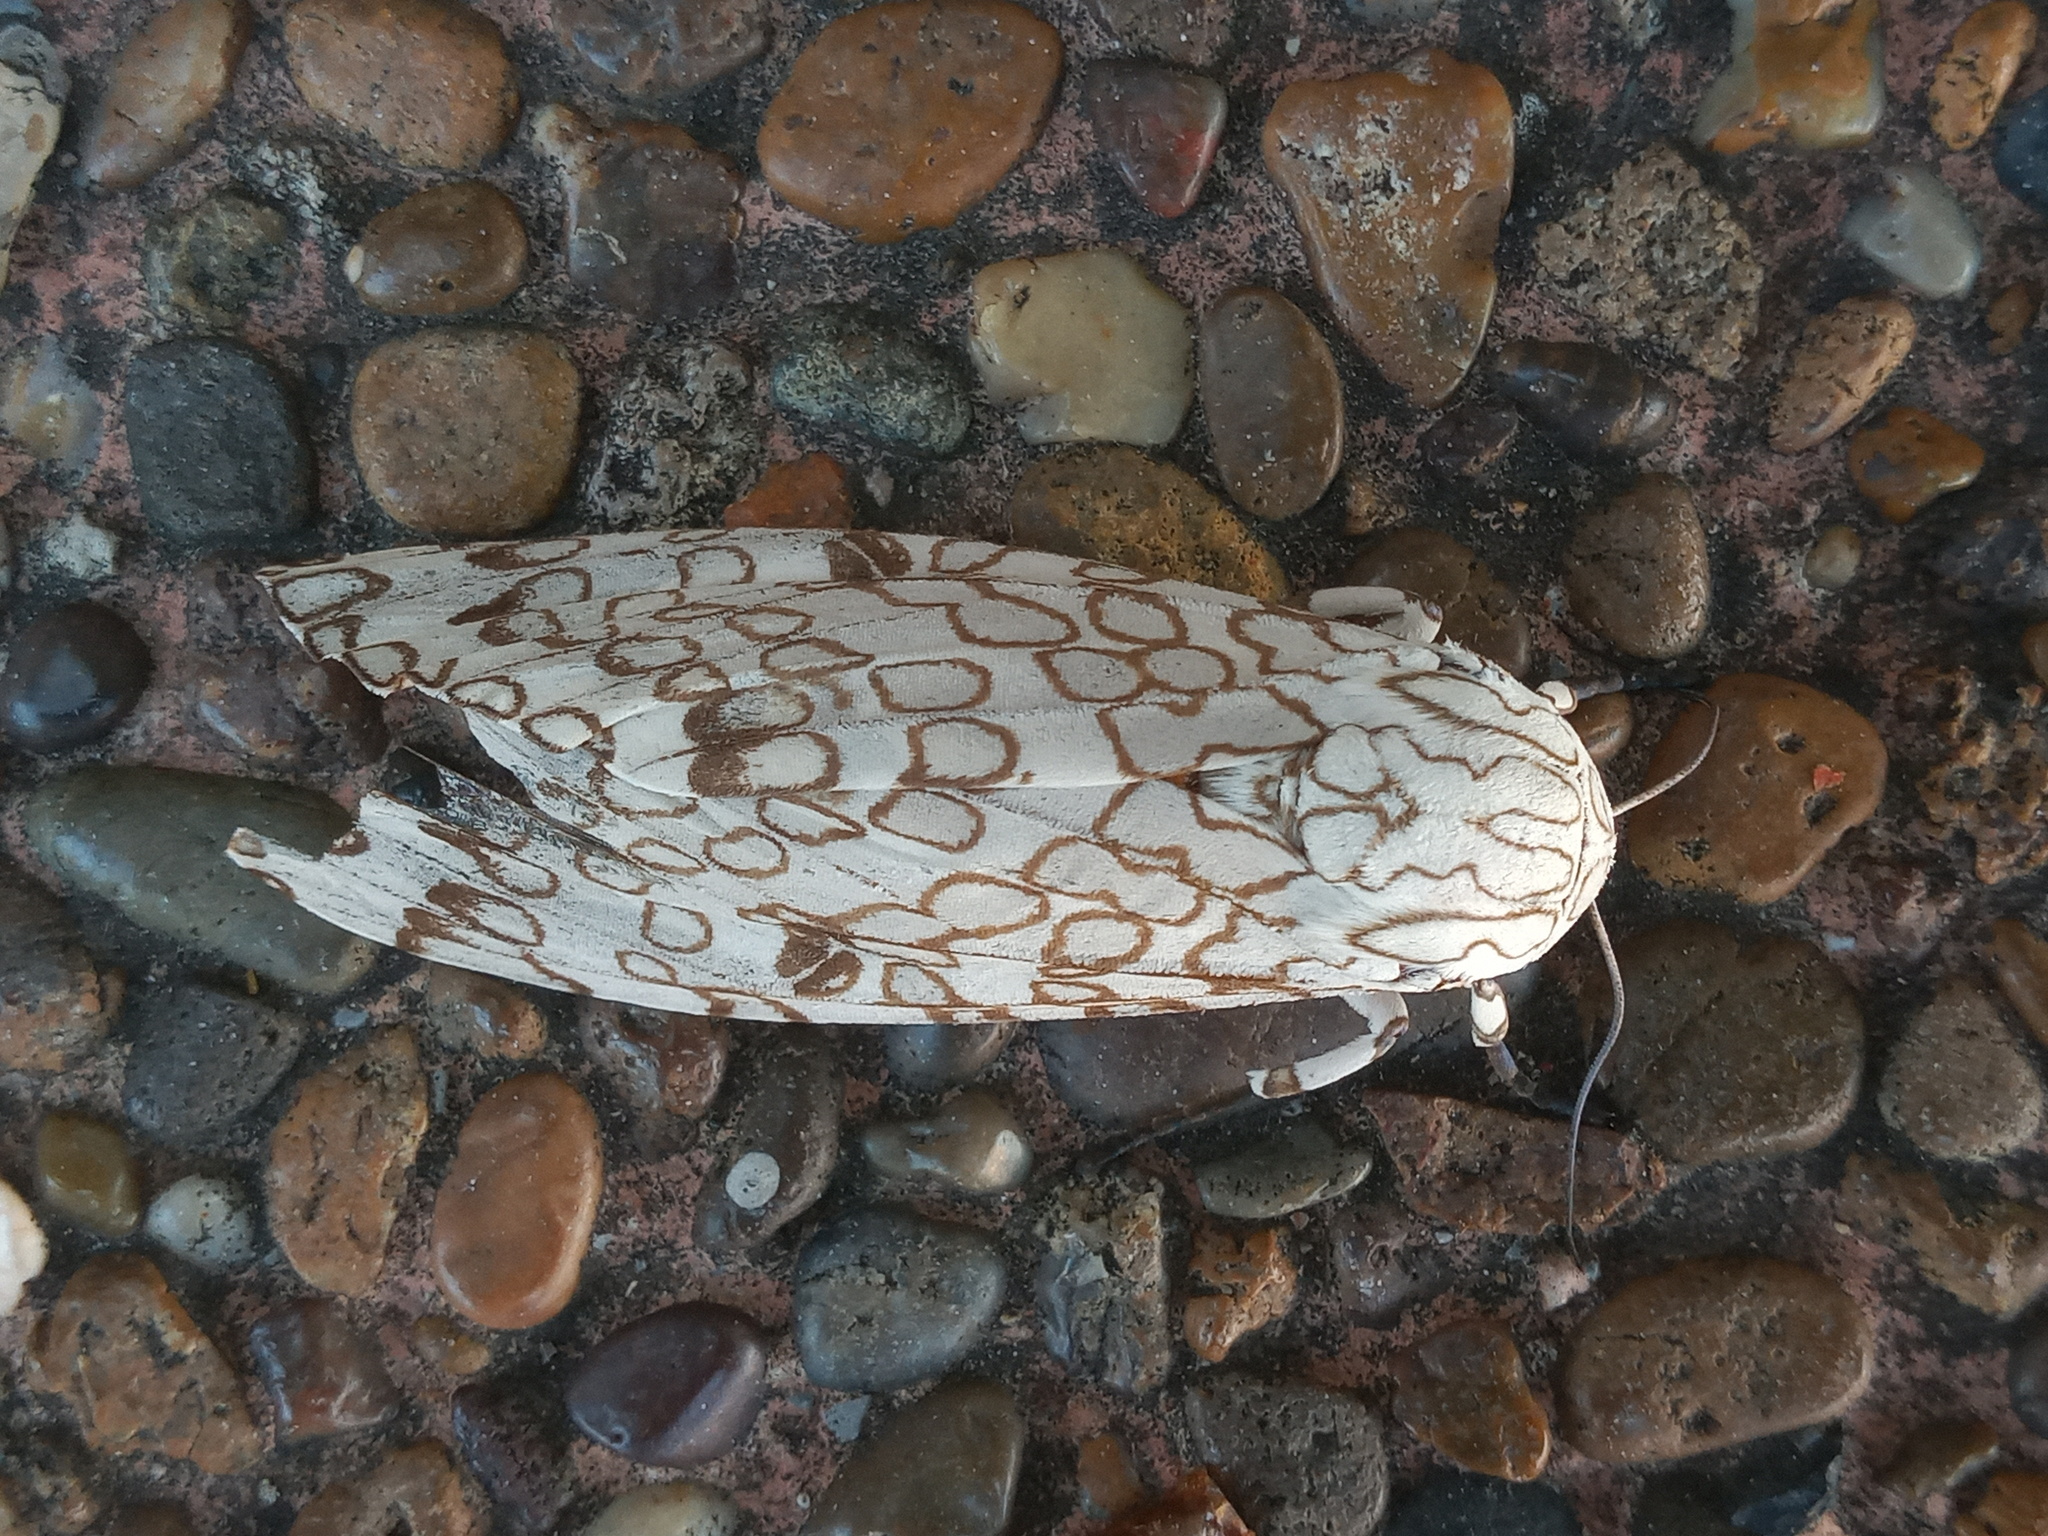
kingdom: Animalia
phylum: Arthropoda
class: Insecta
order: Lepidoptera
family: Erebidae
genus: Hypercompe
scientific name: Hypercompe scribonia
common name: Giant leopard moth
